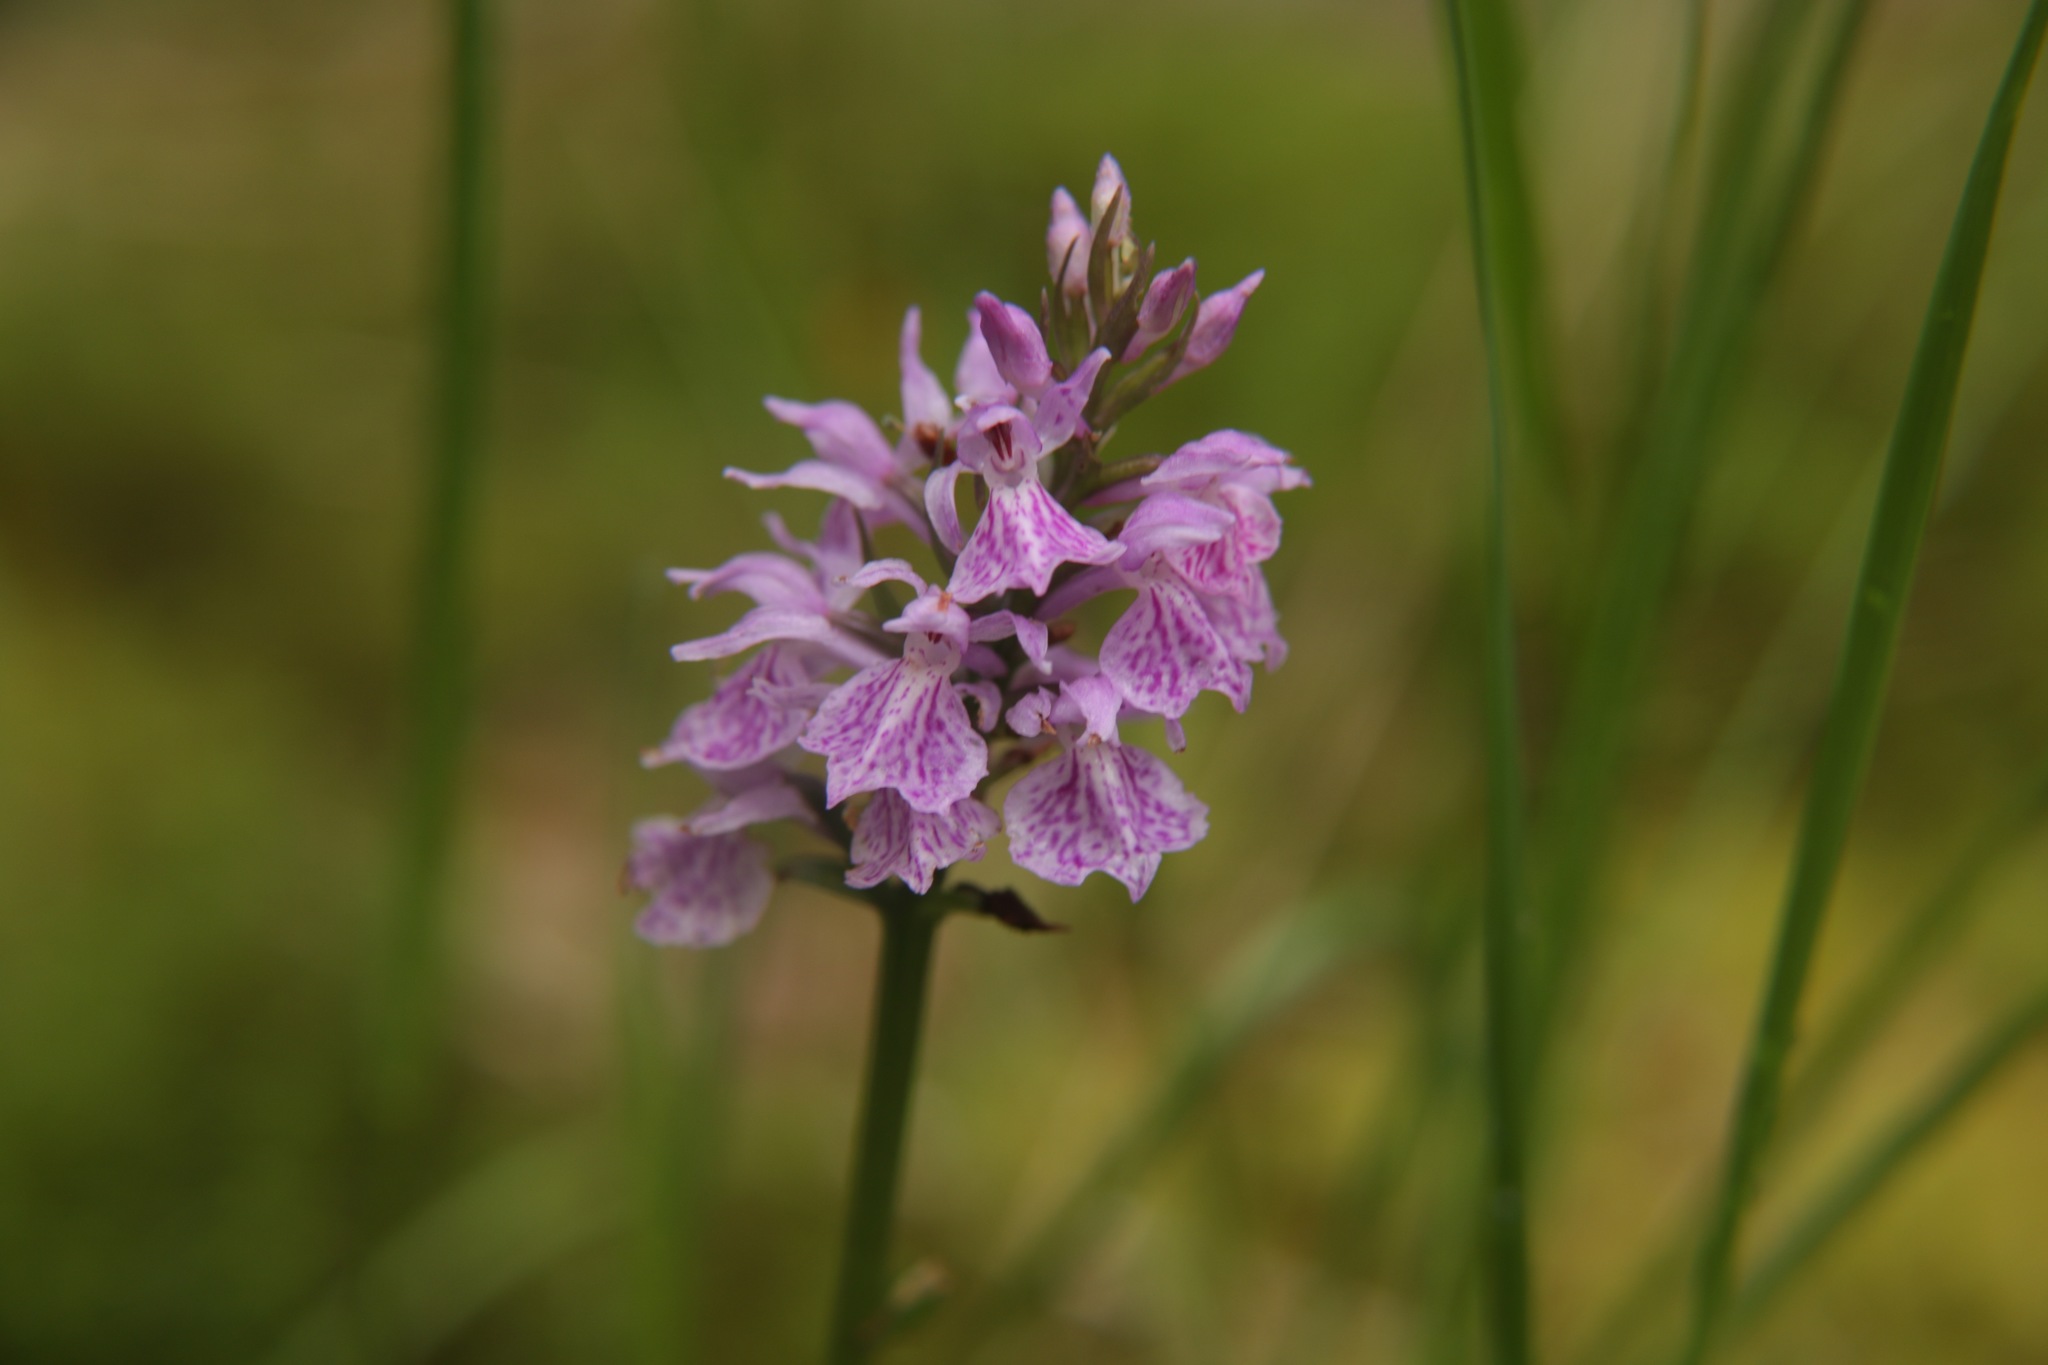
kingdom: Plantae
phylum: Tracheophyta
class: Liliopsida
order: Asparagales
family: Orchidaceae
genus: Dactylorhiza
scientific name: Dactylorhiza maculata
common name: Heath spotted-orchid
